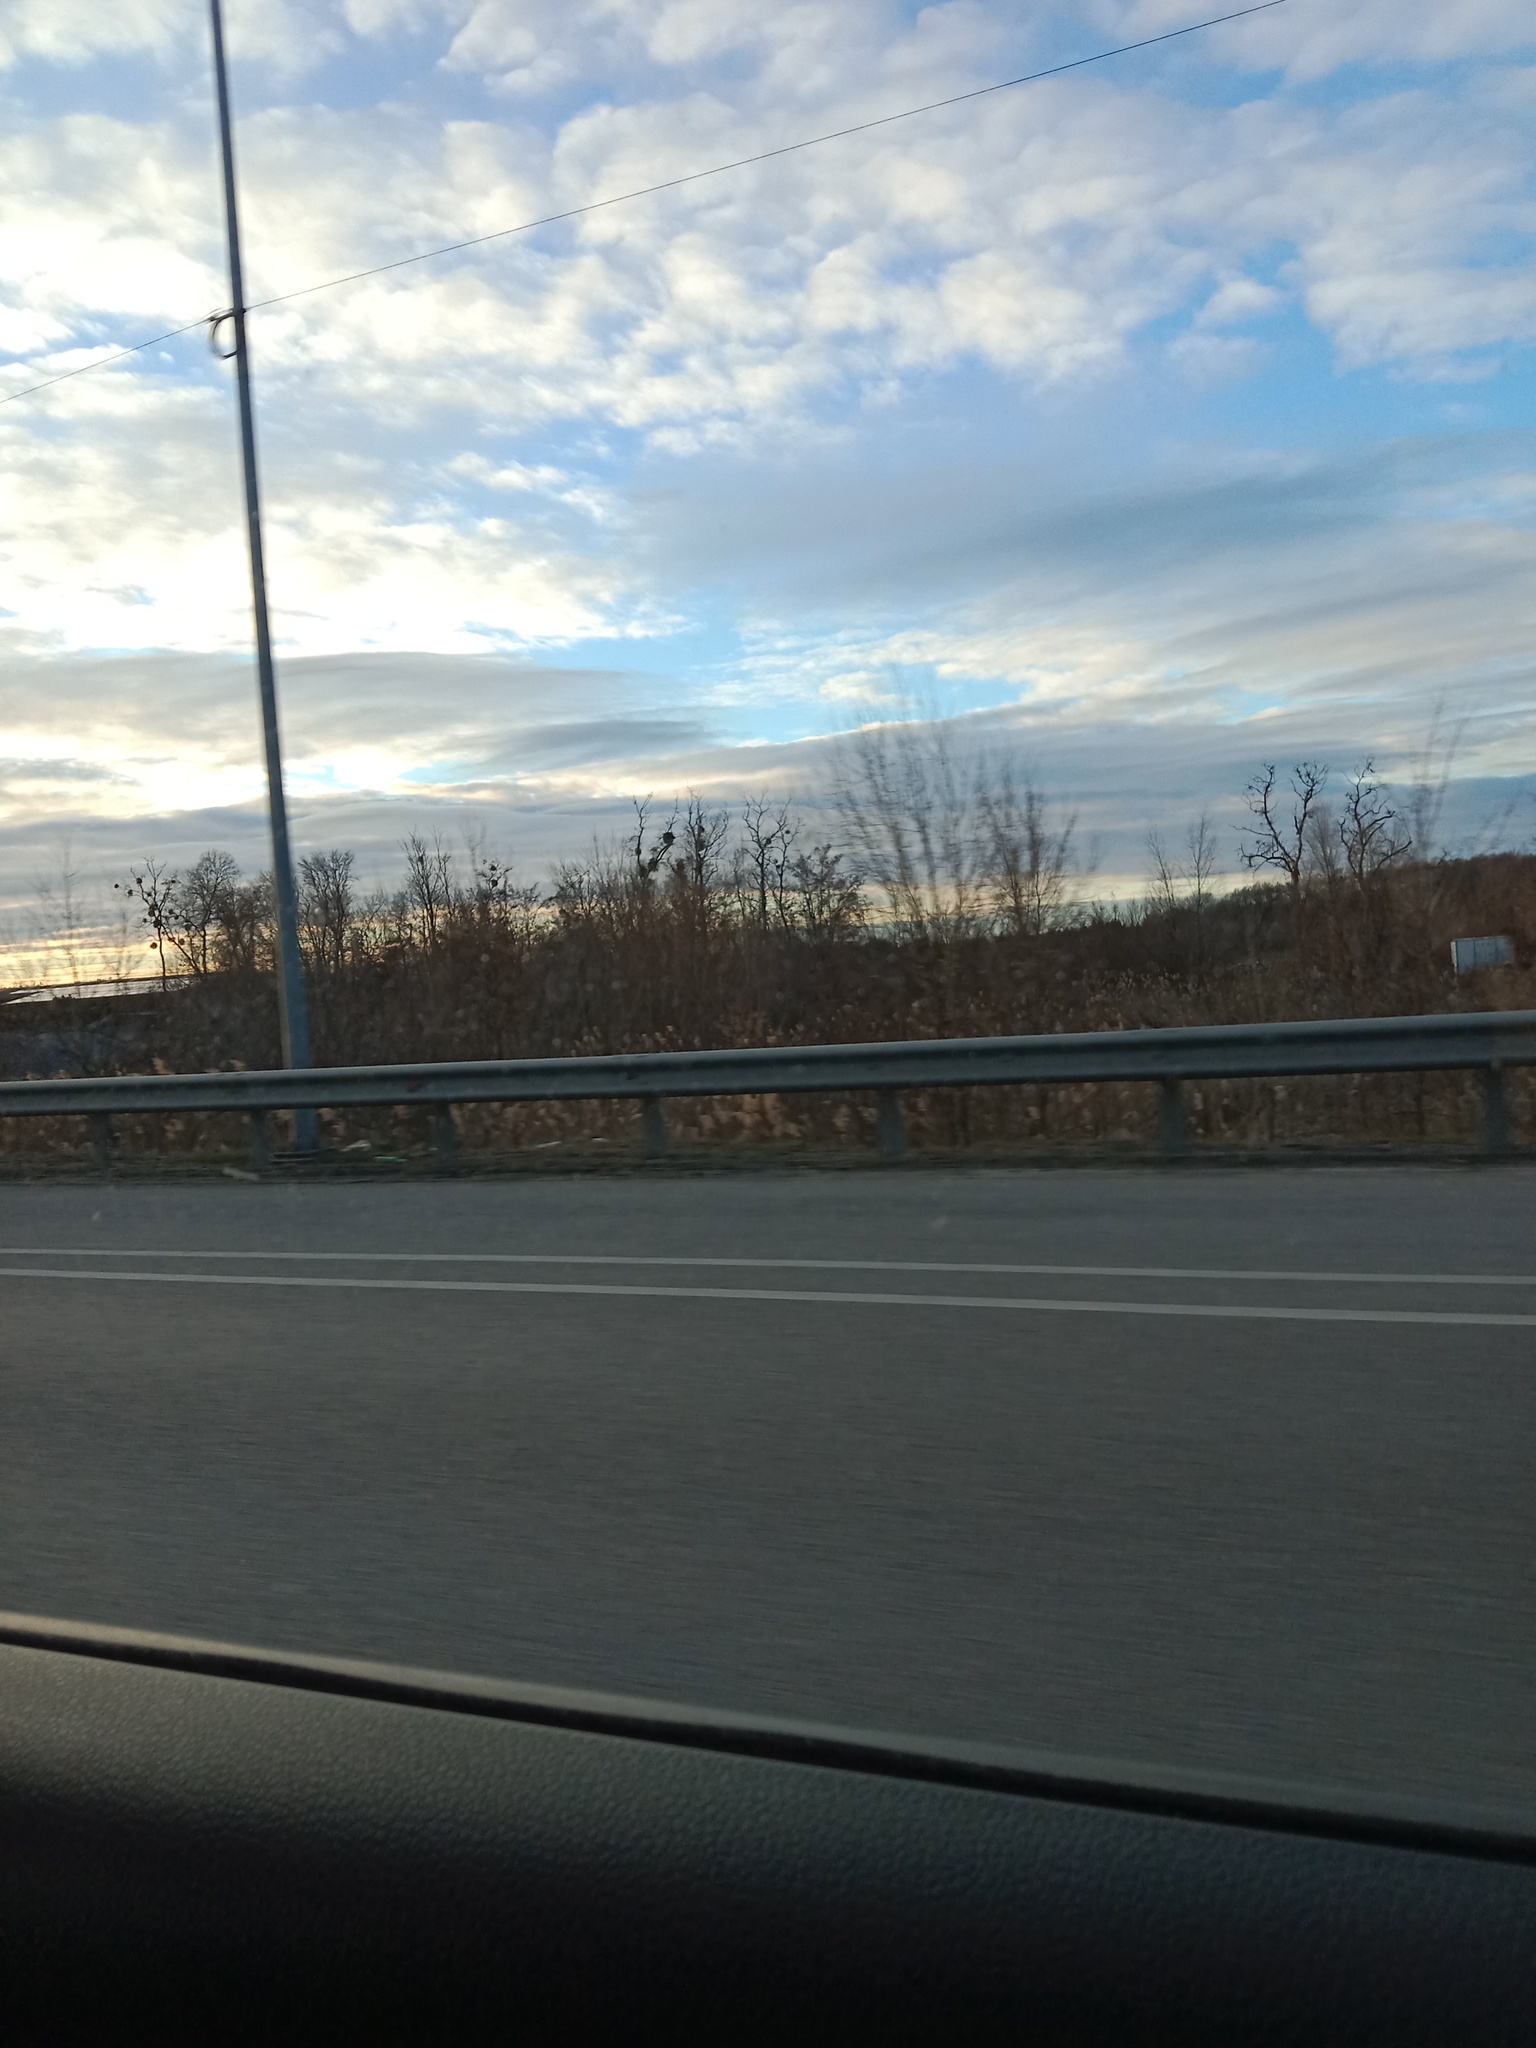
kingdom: Plantae
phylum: Tracheophyta
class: Magnoliopsida
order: Santalales
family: Viscaceae
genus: Viscum
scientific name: Viscum album
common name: Mistletoe
